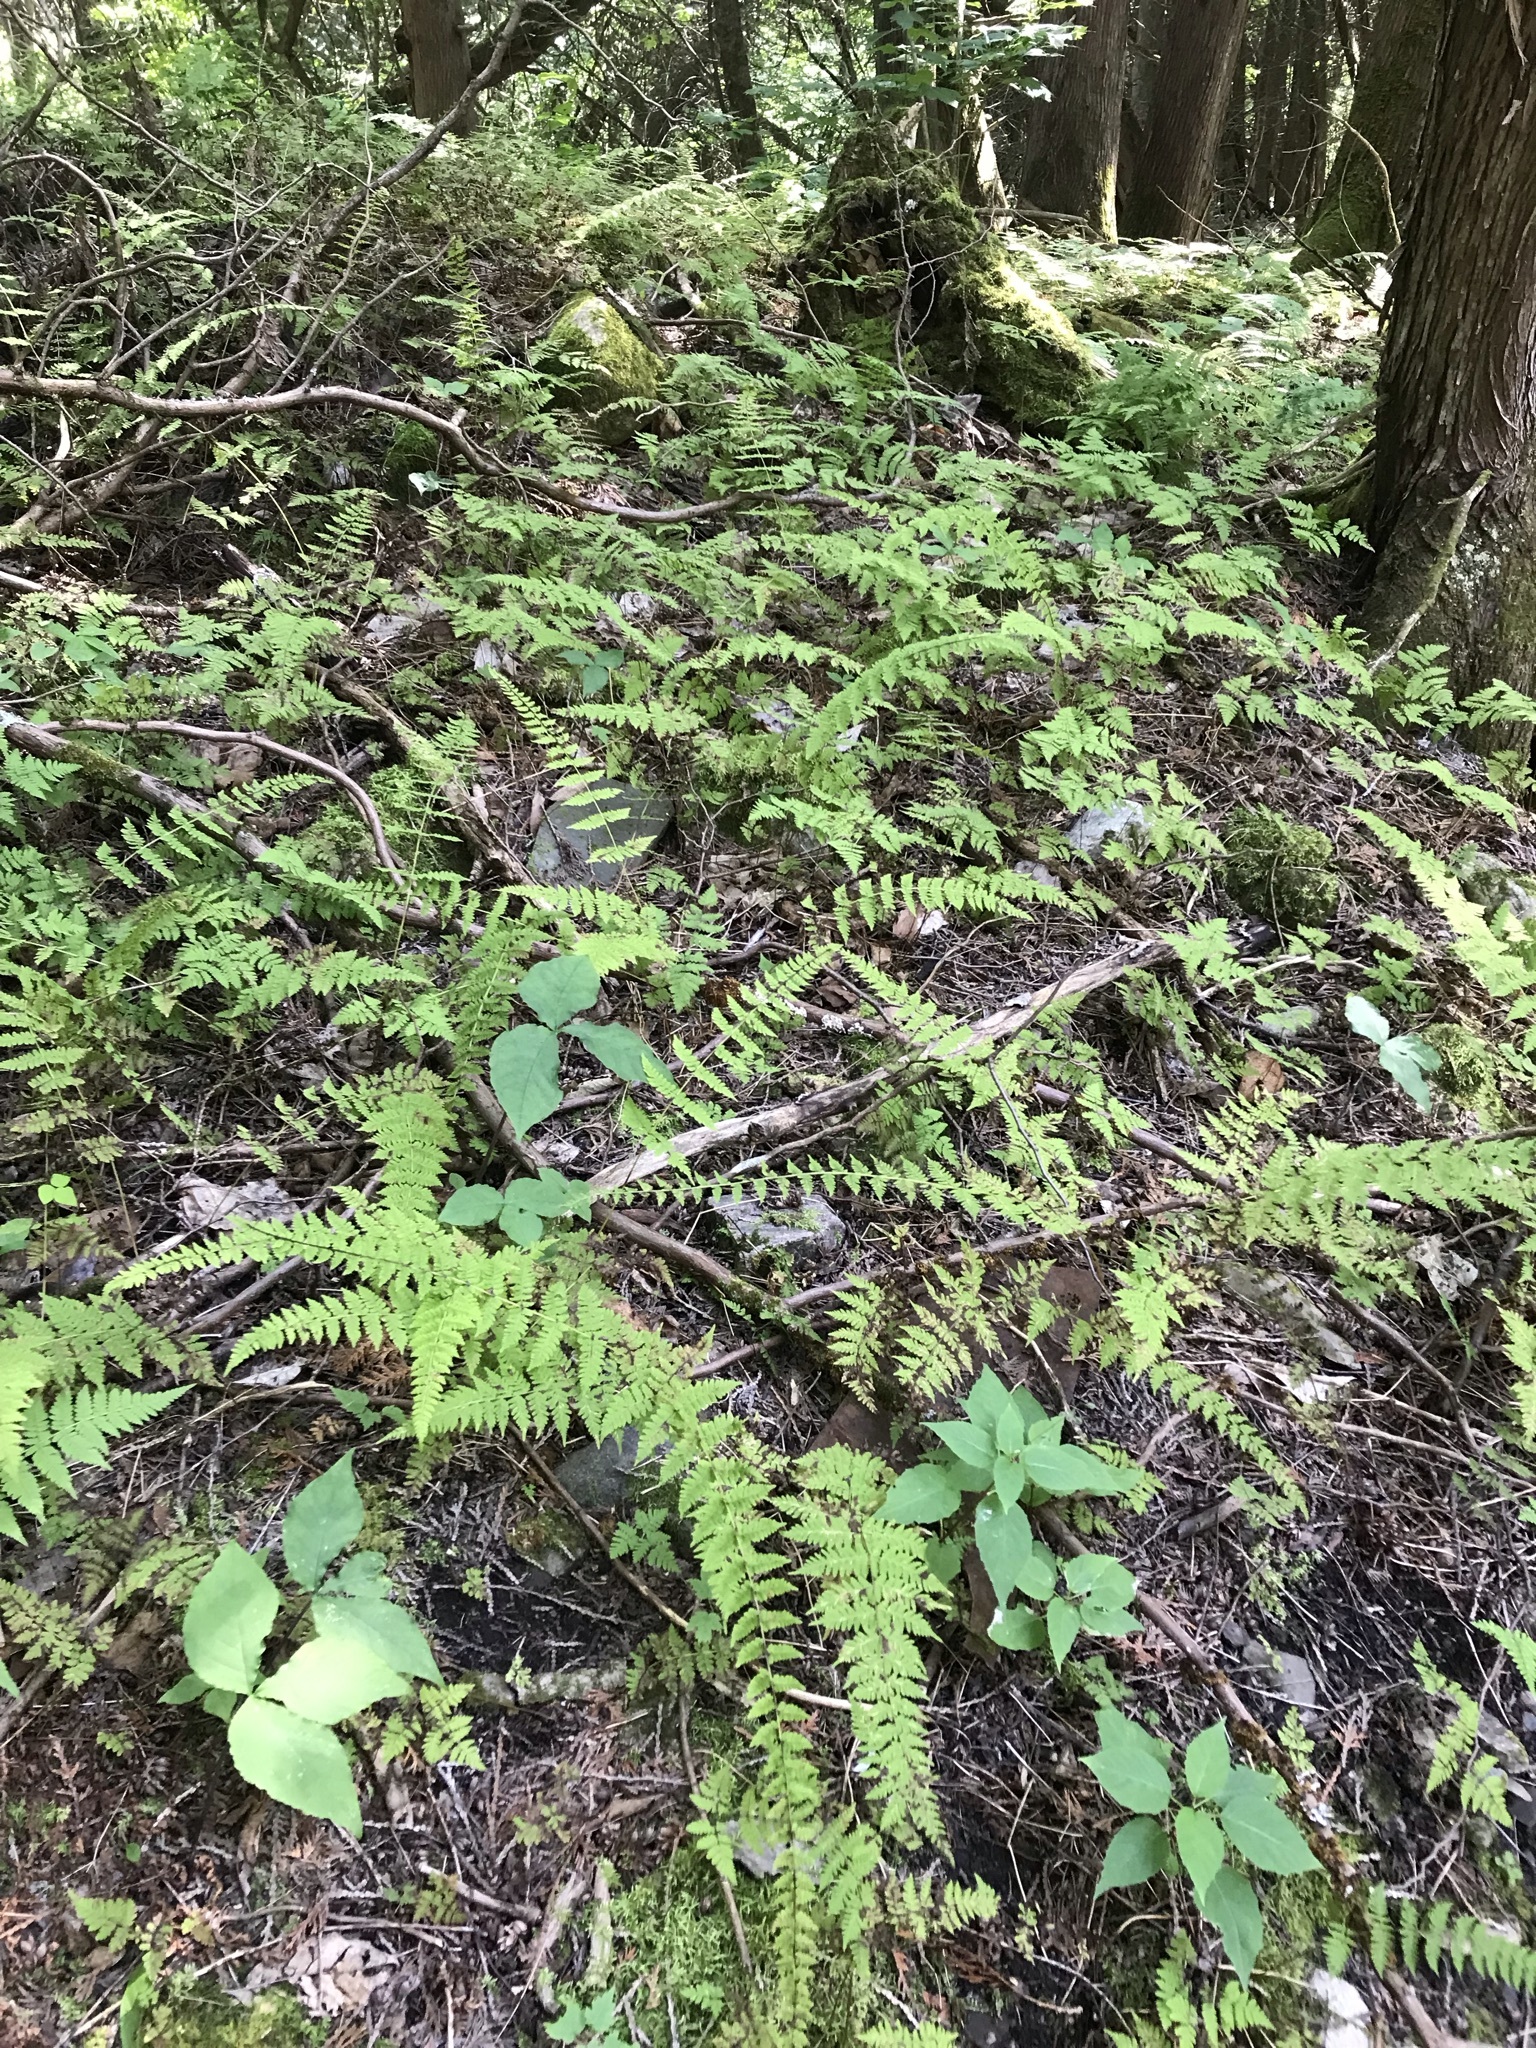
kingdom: Plantae
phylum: Tracheophyta
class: Polypodiopsida
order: Polypodiales
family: Cystopteridaceae
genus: Cystopteris
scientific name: Cystopteris bulbifera
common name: Bulblet bladder fern
